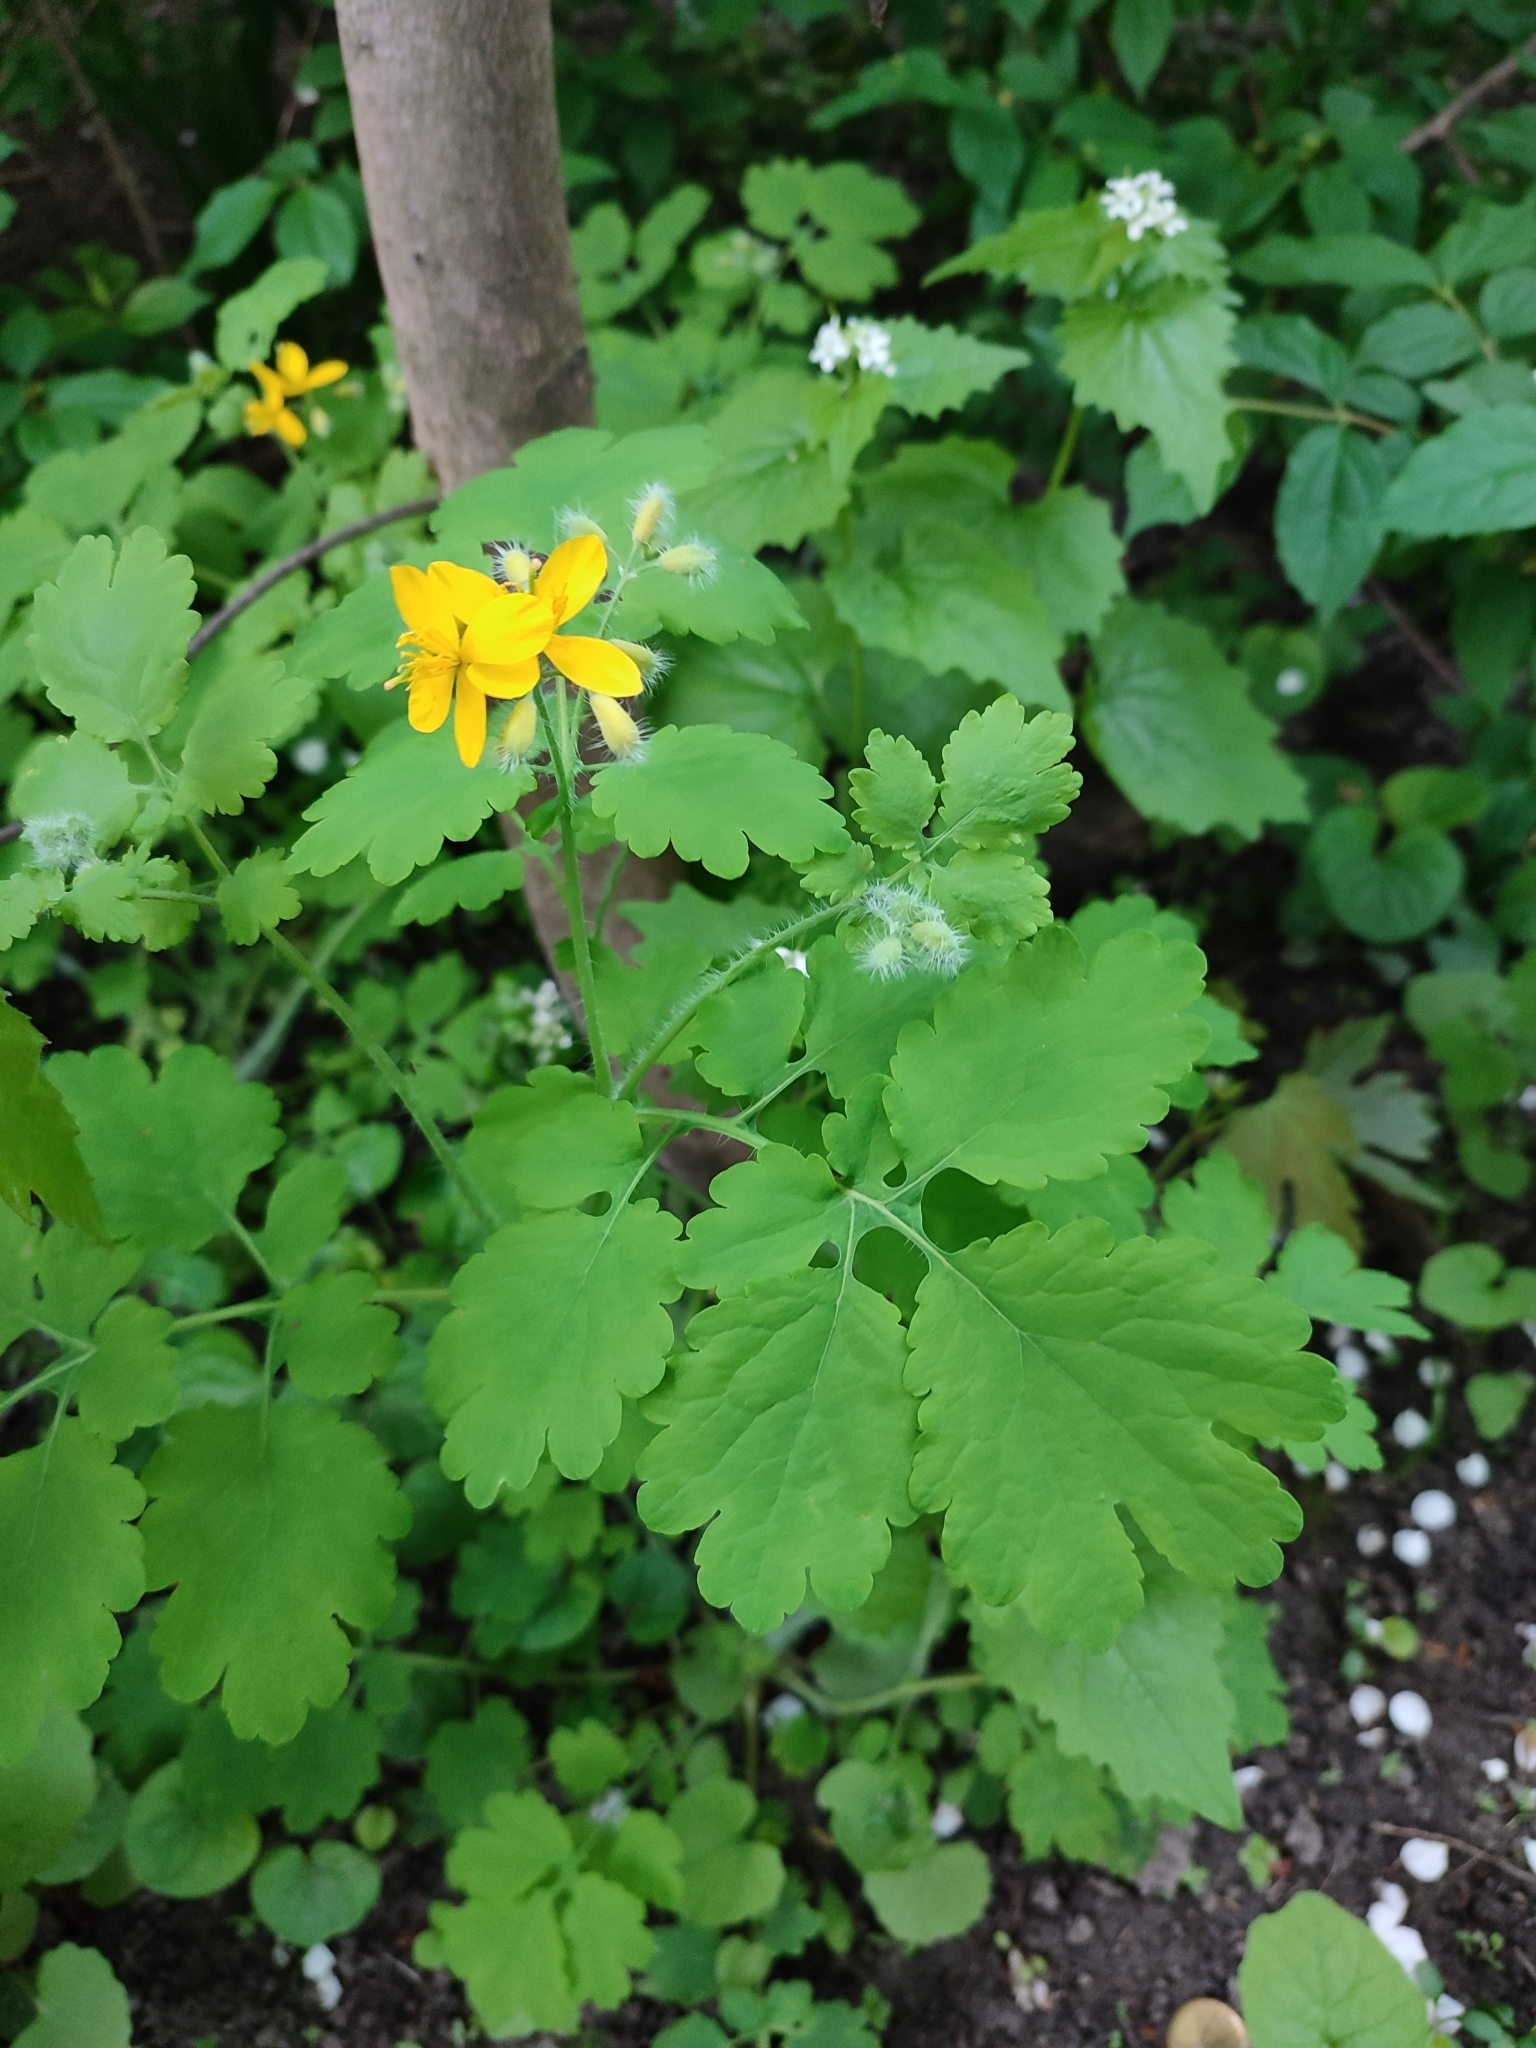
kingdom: Plantae
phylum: Tracheophyta
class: Magnoliopsida
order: Ranunculales
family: Papaveraceae
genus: Chelidonium
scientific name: Chelidonium majus
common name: Greater celandine
